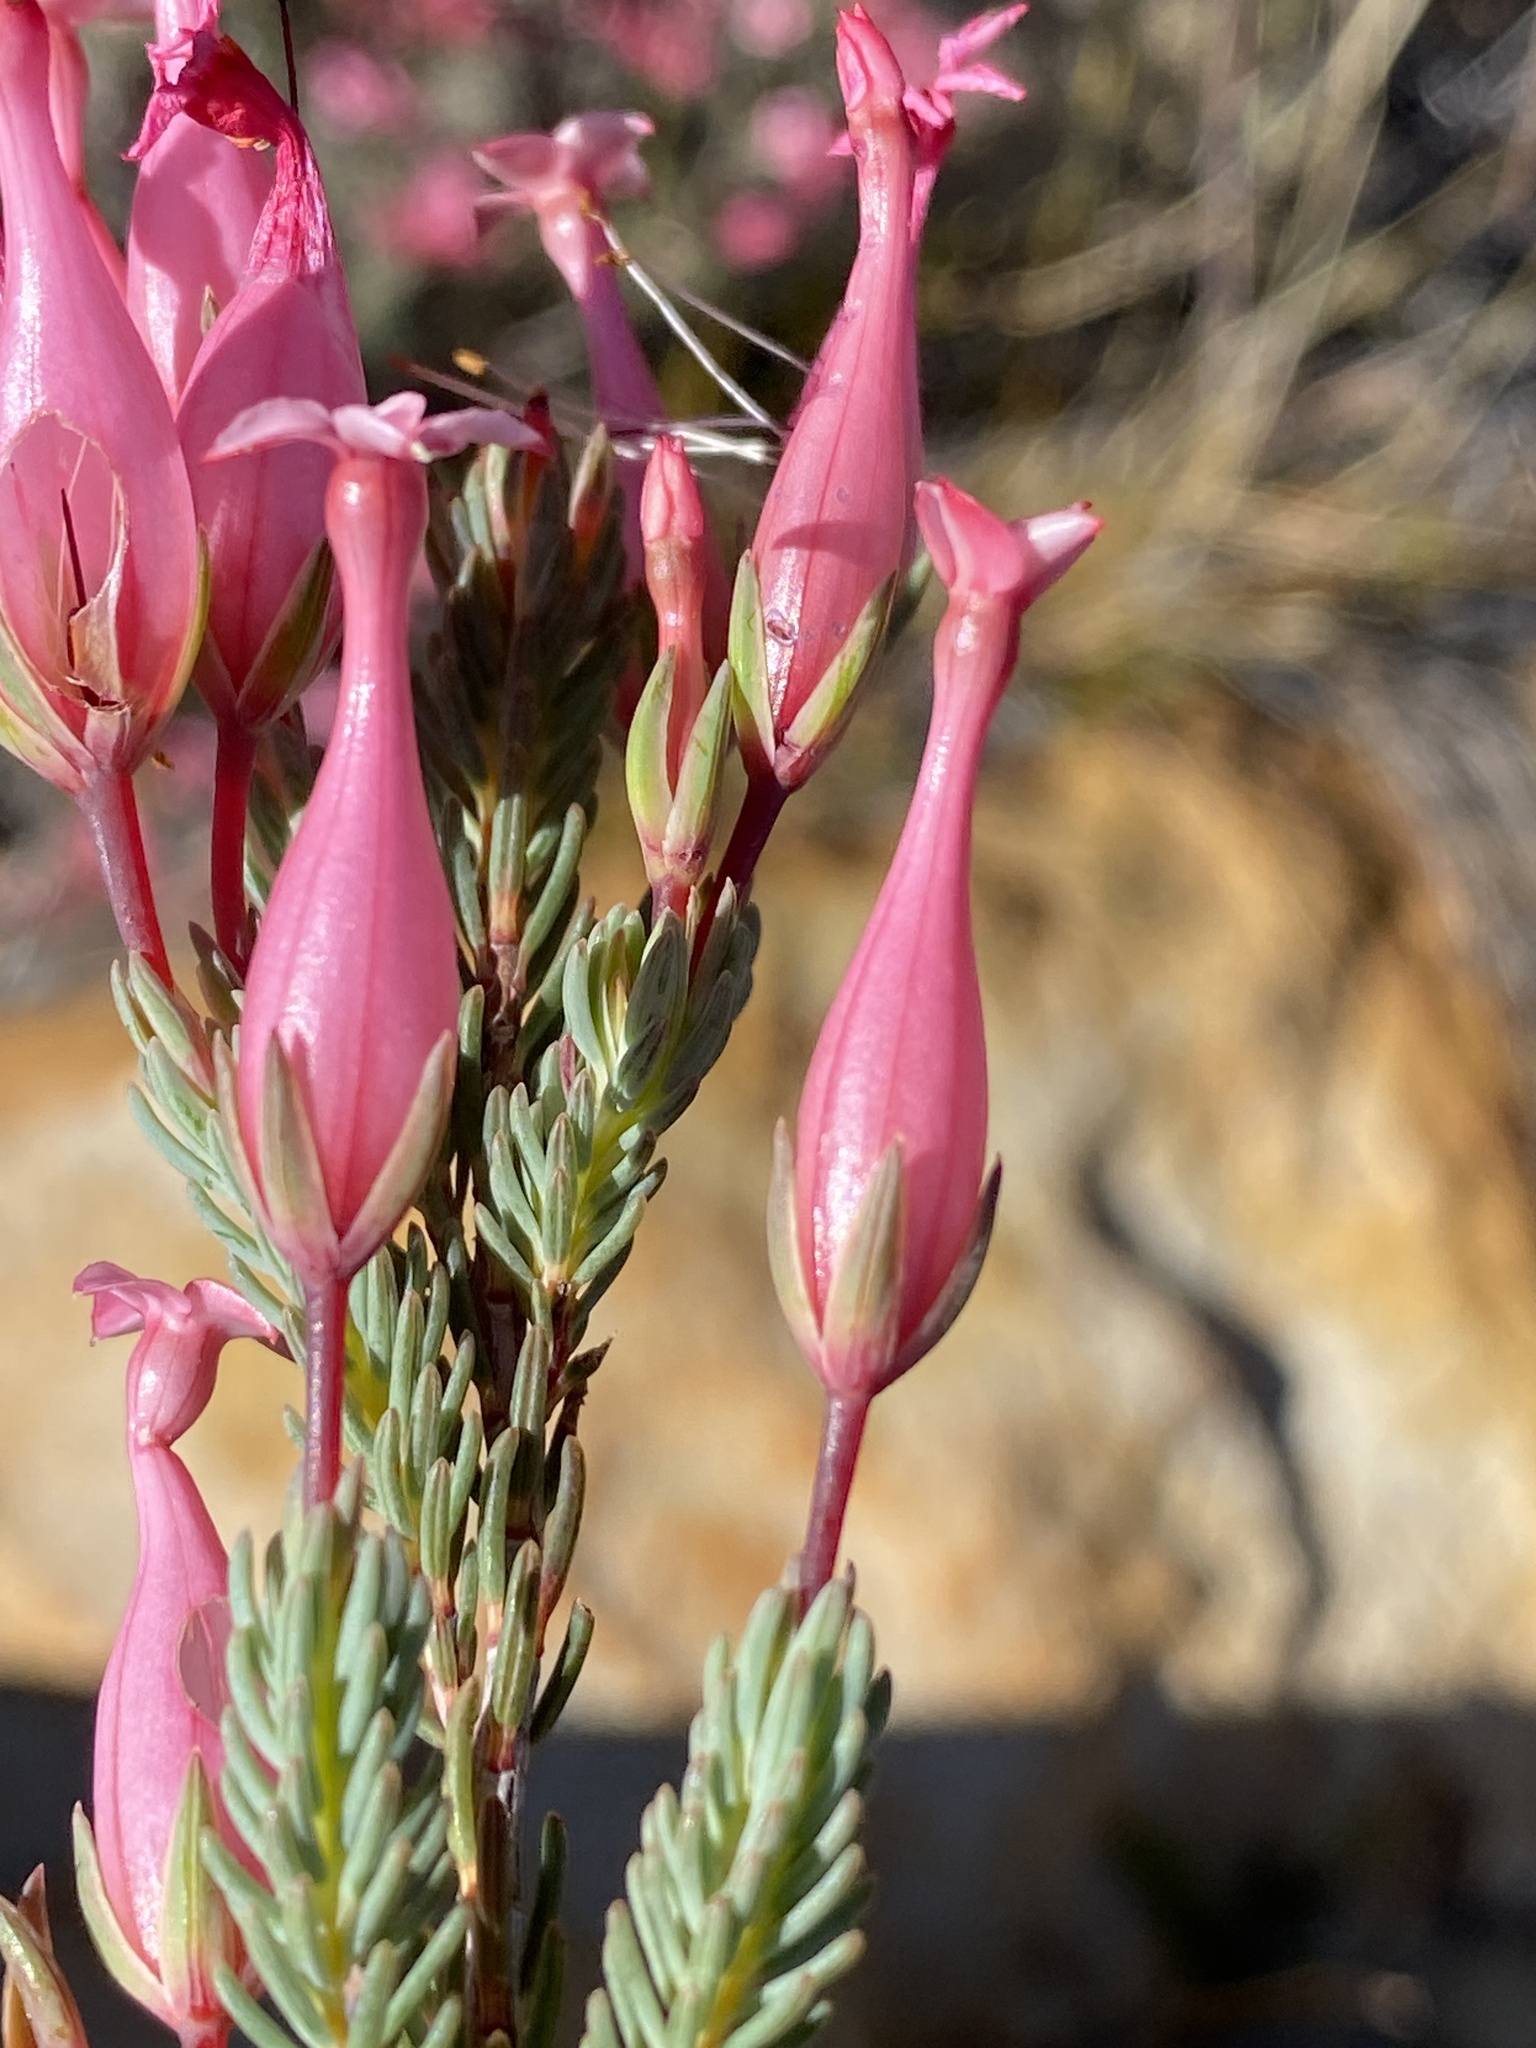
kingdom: Plantae
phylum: Tracheophyta
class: Magnoliopsida
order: Ericales
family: Ericaceae
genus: Erica
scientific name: Erica junonia
